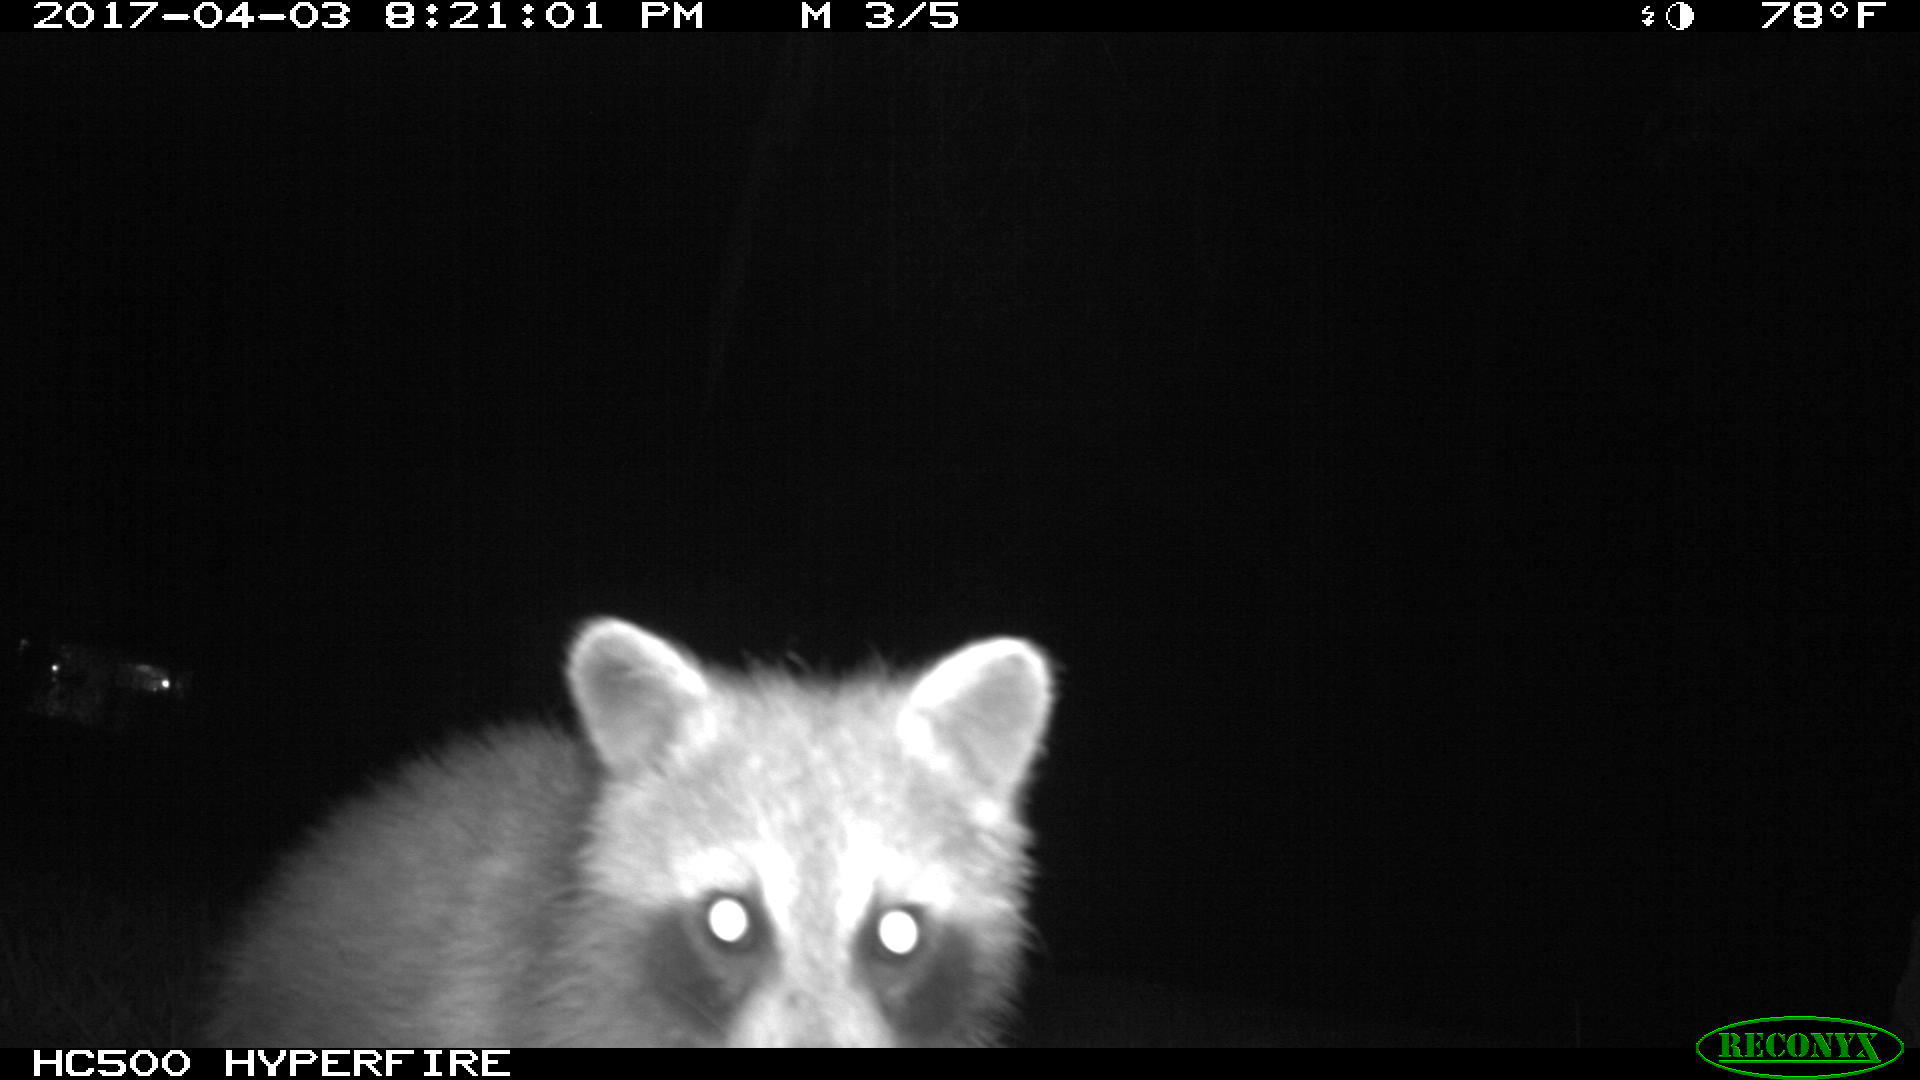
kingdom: Animalia
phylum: Chordata
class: Mammalia
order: Carnivora
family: Procyonidae
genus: Procyon
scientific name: Procyon lotor
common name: Raccoon
